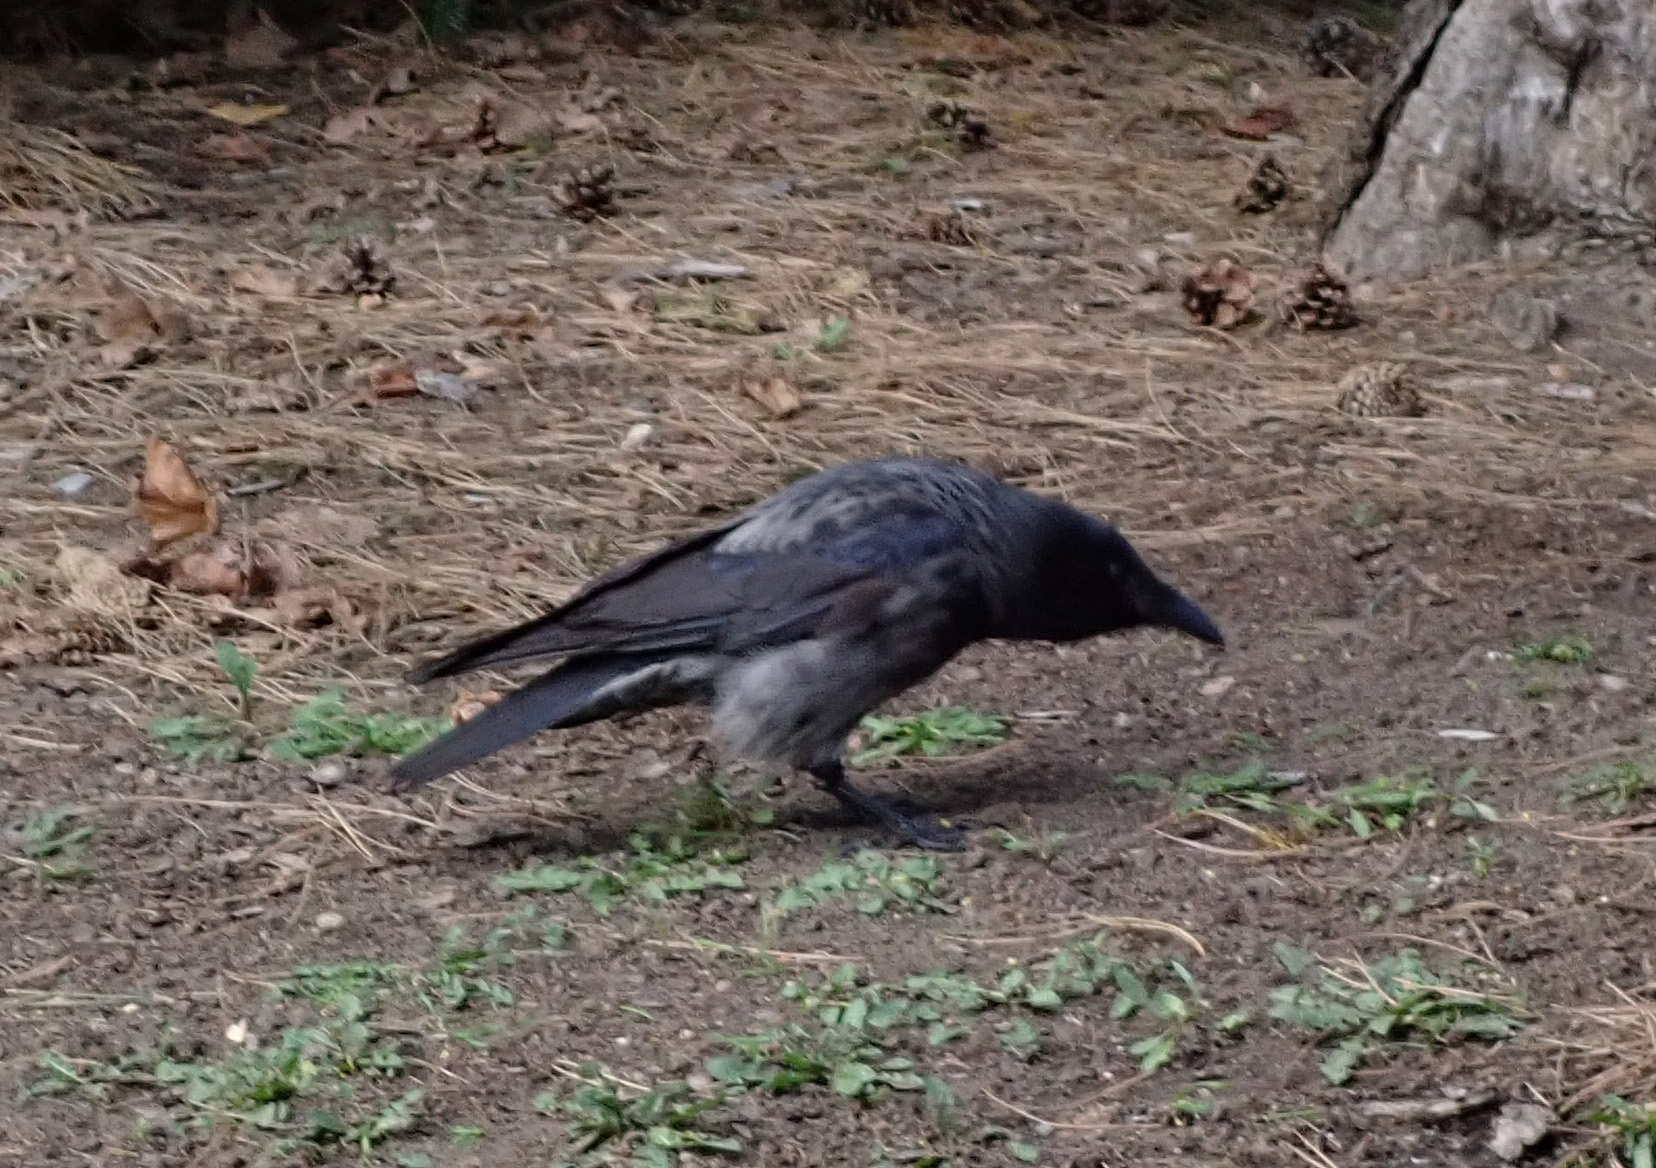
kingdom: Animalia
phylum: Chordata
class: Aves
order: Passeriformes
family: Corvidae
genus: Corvus
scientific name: Corvus
